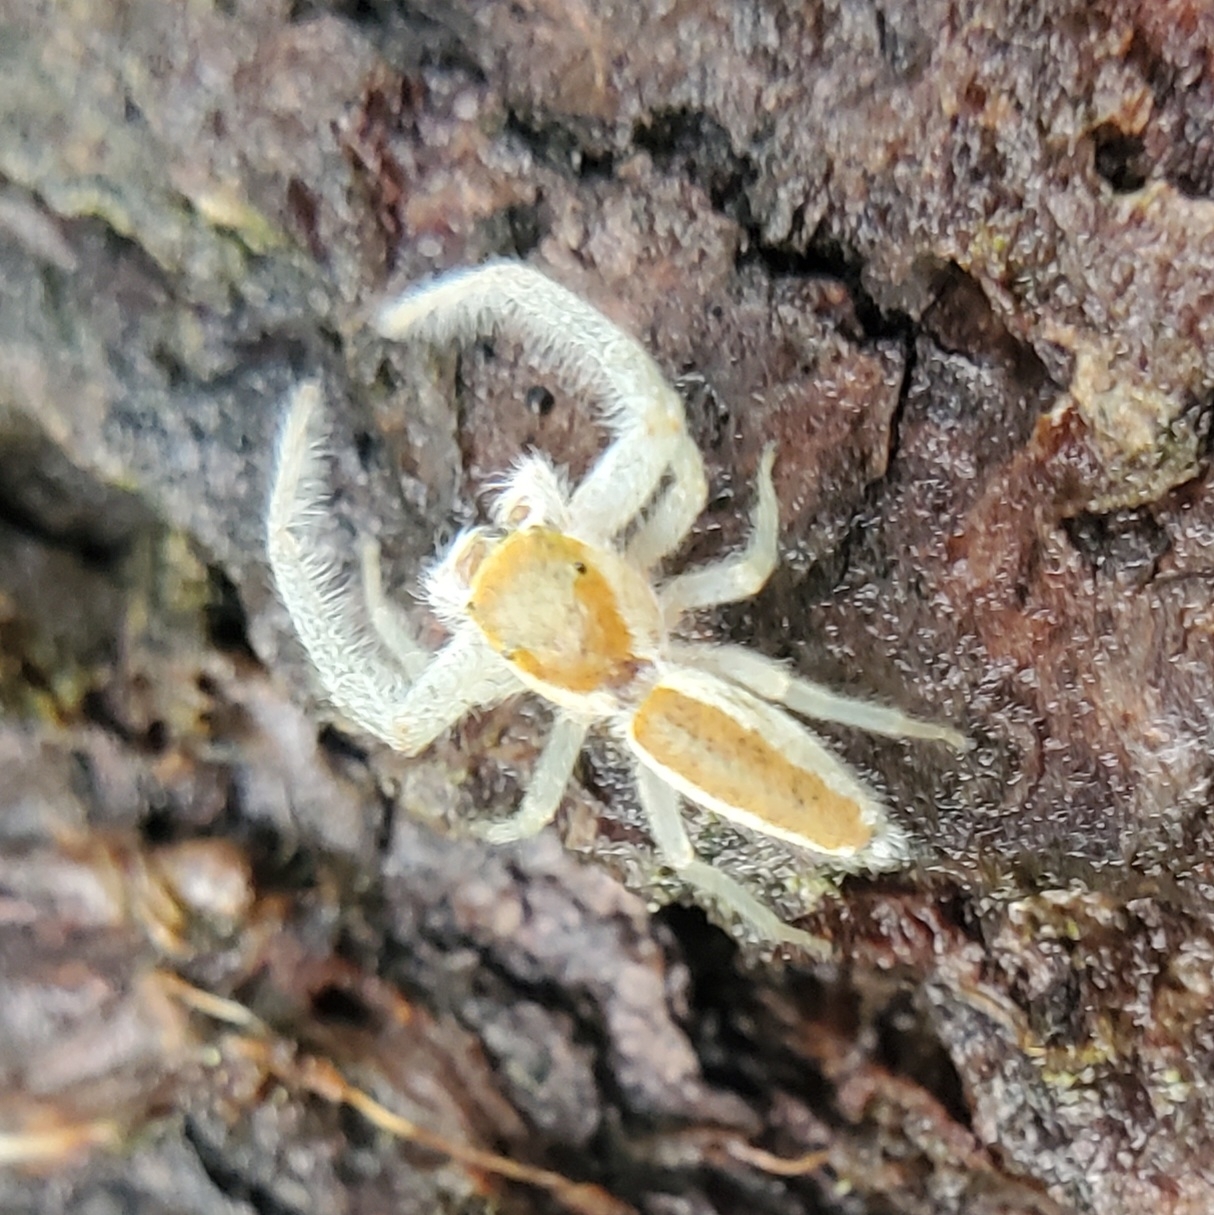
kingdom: Animalia
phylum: Arthropoda
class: Arachnida
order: Araneae
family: Salticidae
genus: Hentzia
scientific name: Hentzia mitrata
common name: White-jawed jumping spider
